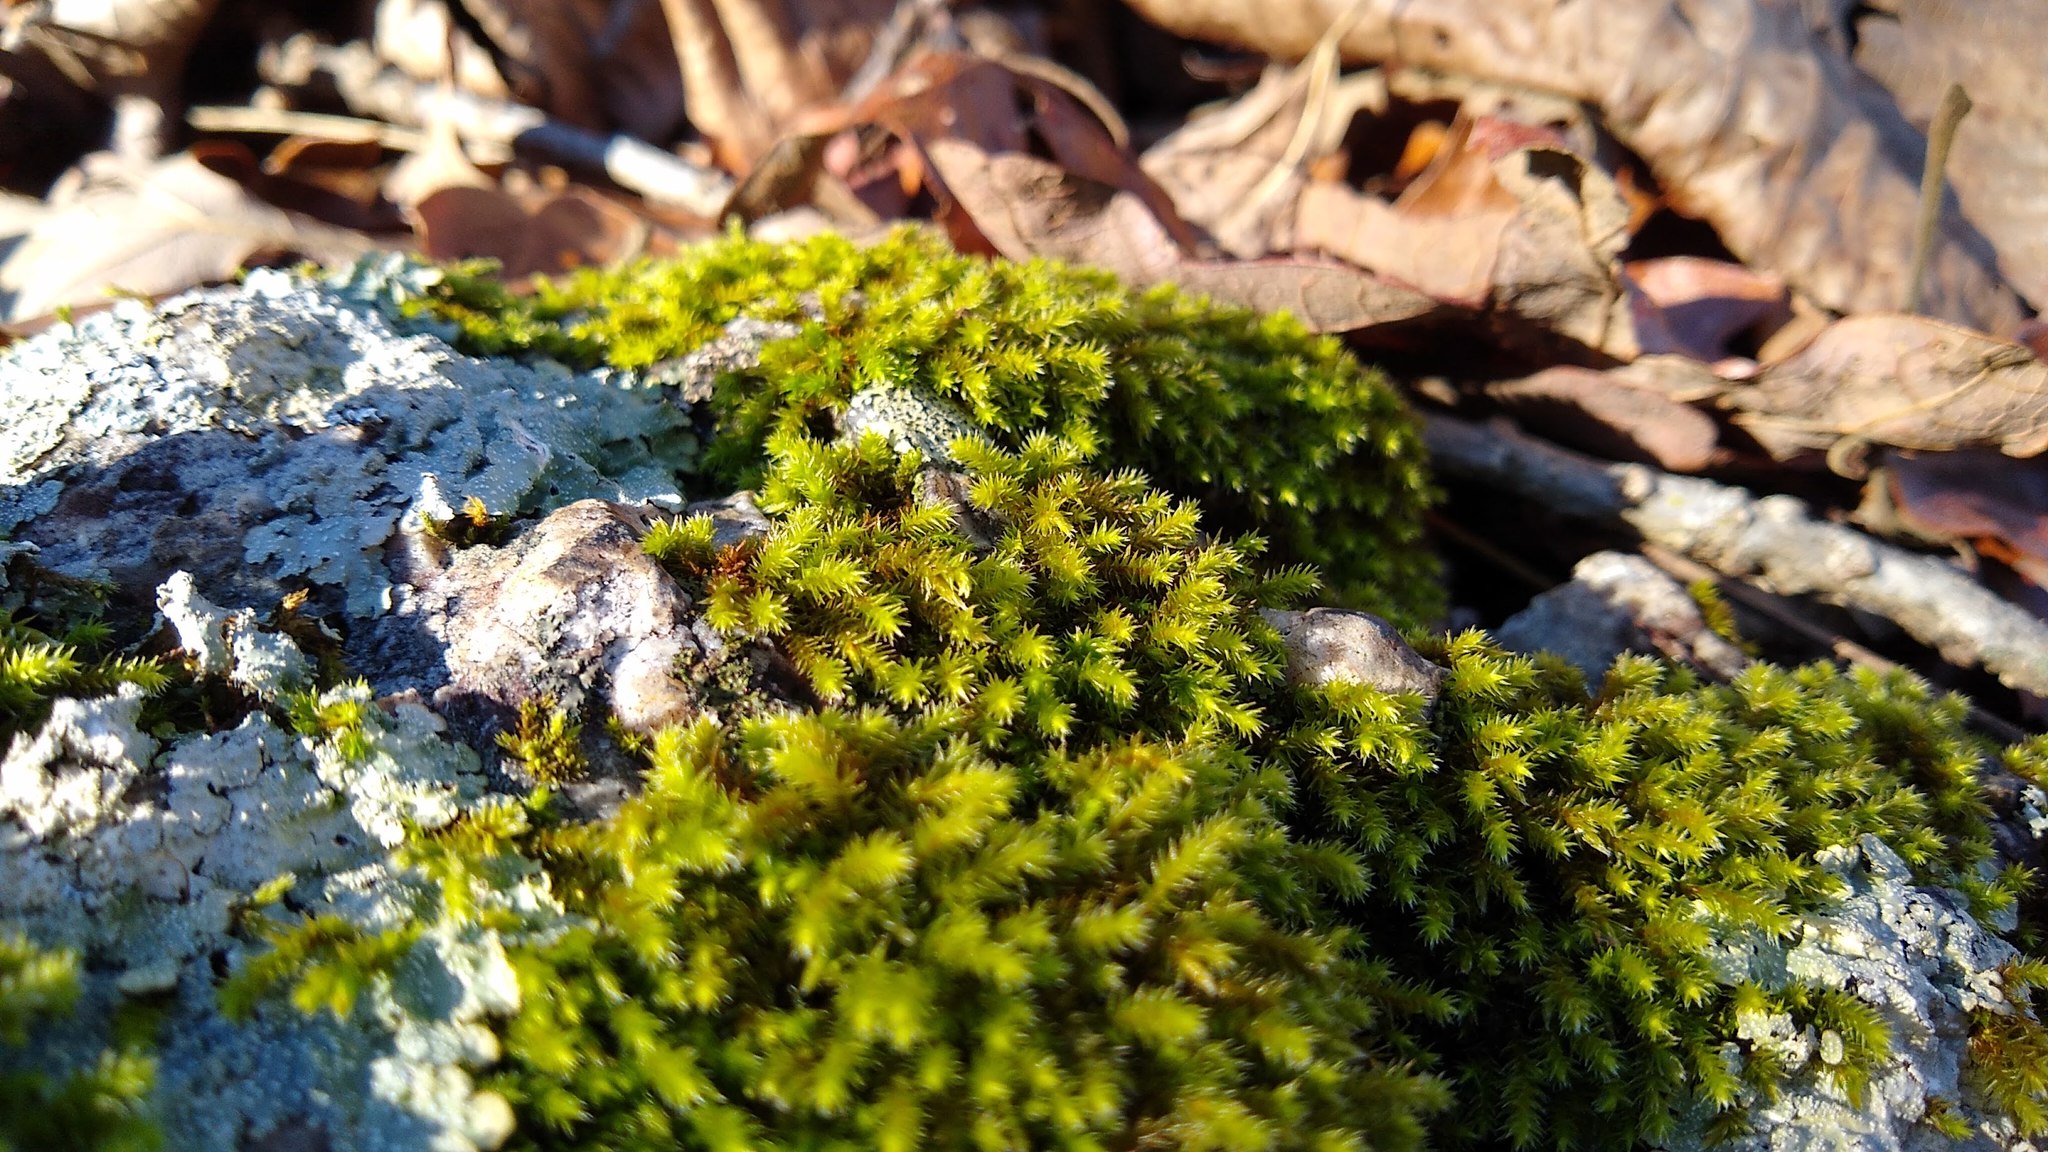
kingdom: Plantae
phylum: Bryophyta
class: Bryopsida
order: Hedwigiales
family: Hedwigiaceae
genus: Hedwigia
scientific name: Hedwigia ciliata
